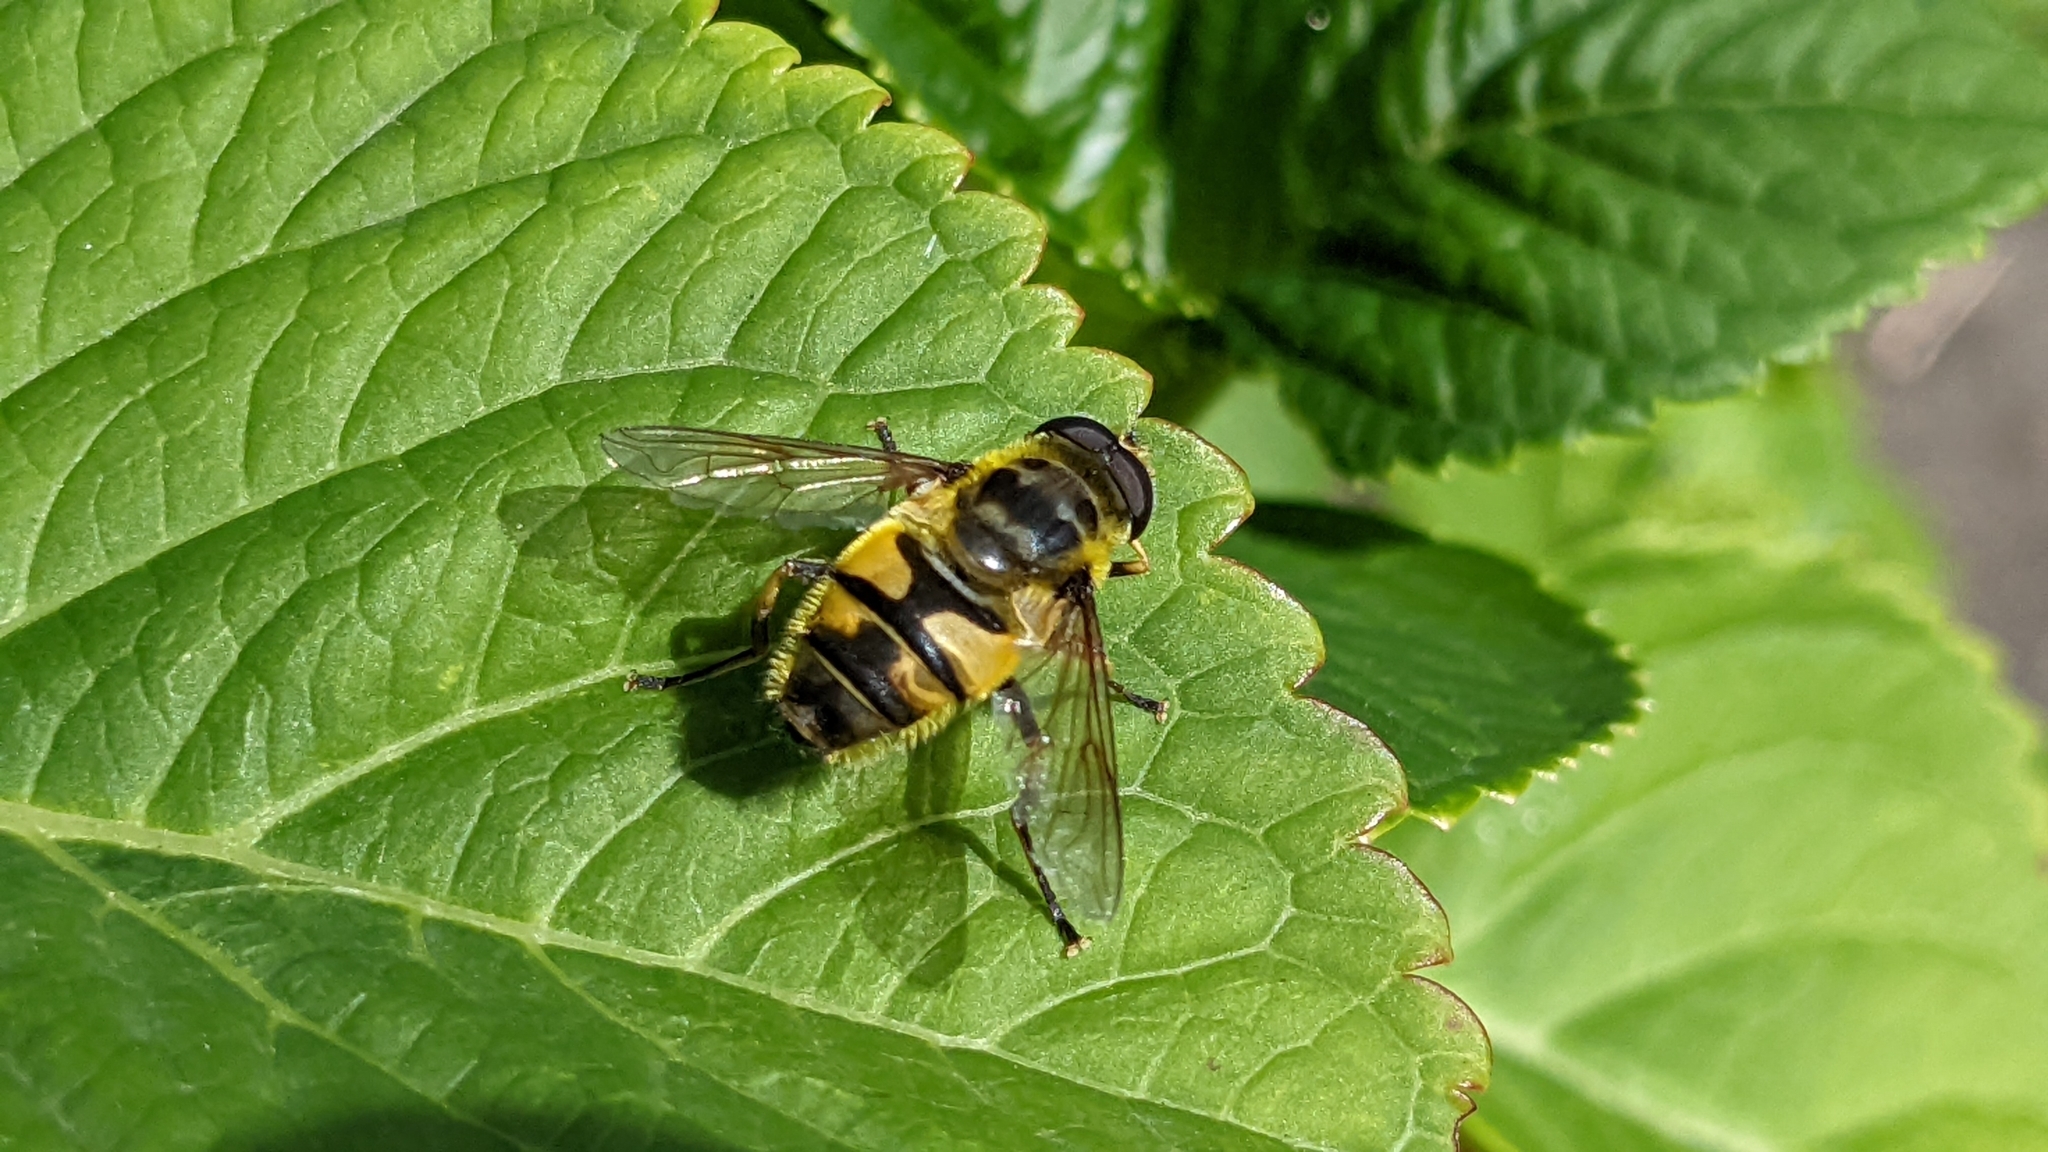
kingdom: Animalia
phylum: Arthropoda
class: Insecta
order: Diptera
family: Syrphidae
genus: Myathropa
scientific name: Myathropa florea
